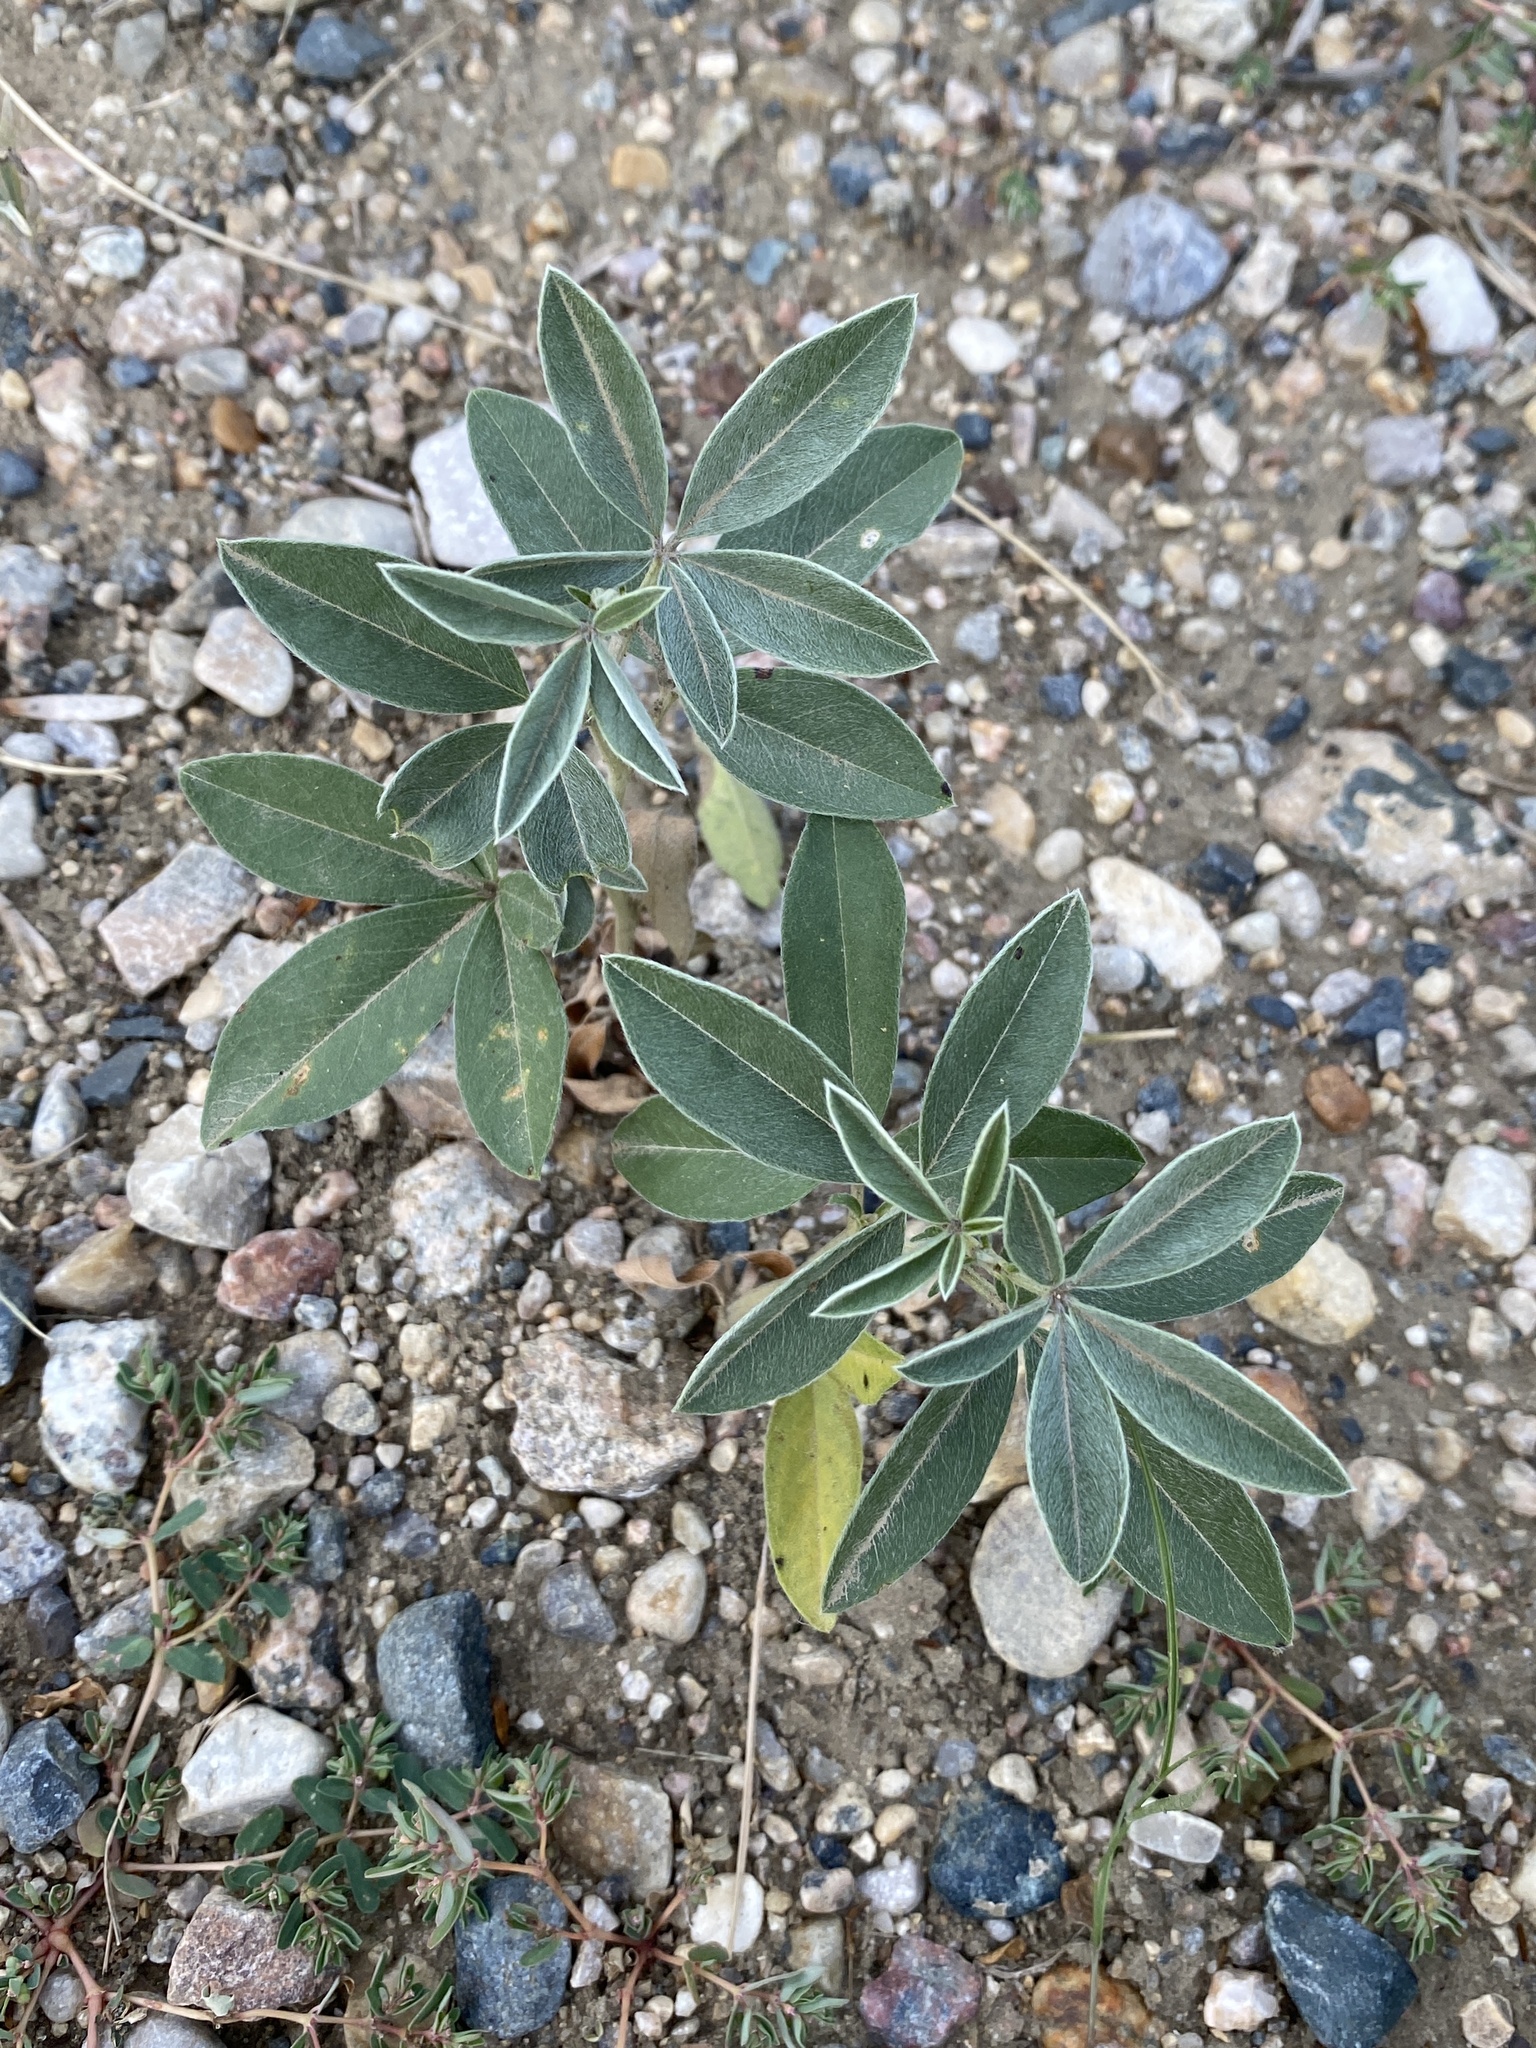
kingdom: Plantae
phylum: Tracheophyta
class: Magnoliopsida
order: Fabales
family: Fabaceae
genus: Pediomelum
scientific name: Pediomelum esculentum
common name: Indian-turnip
